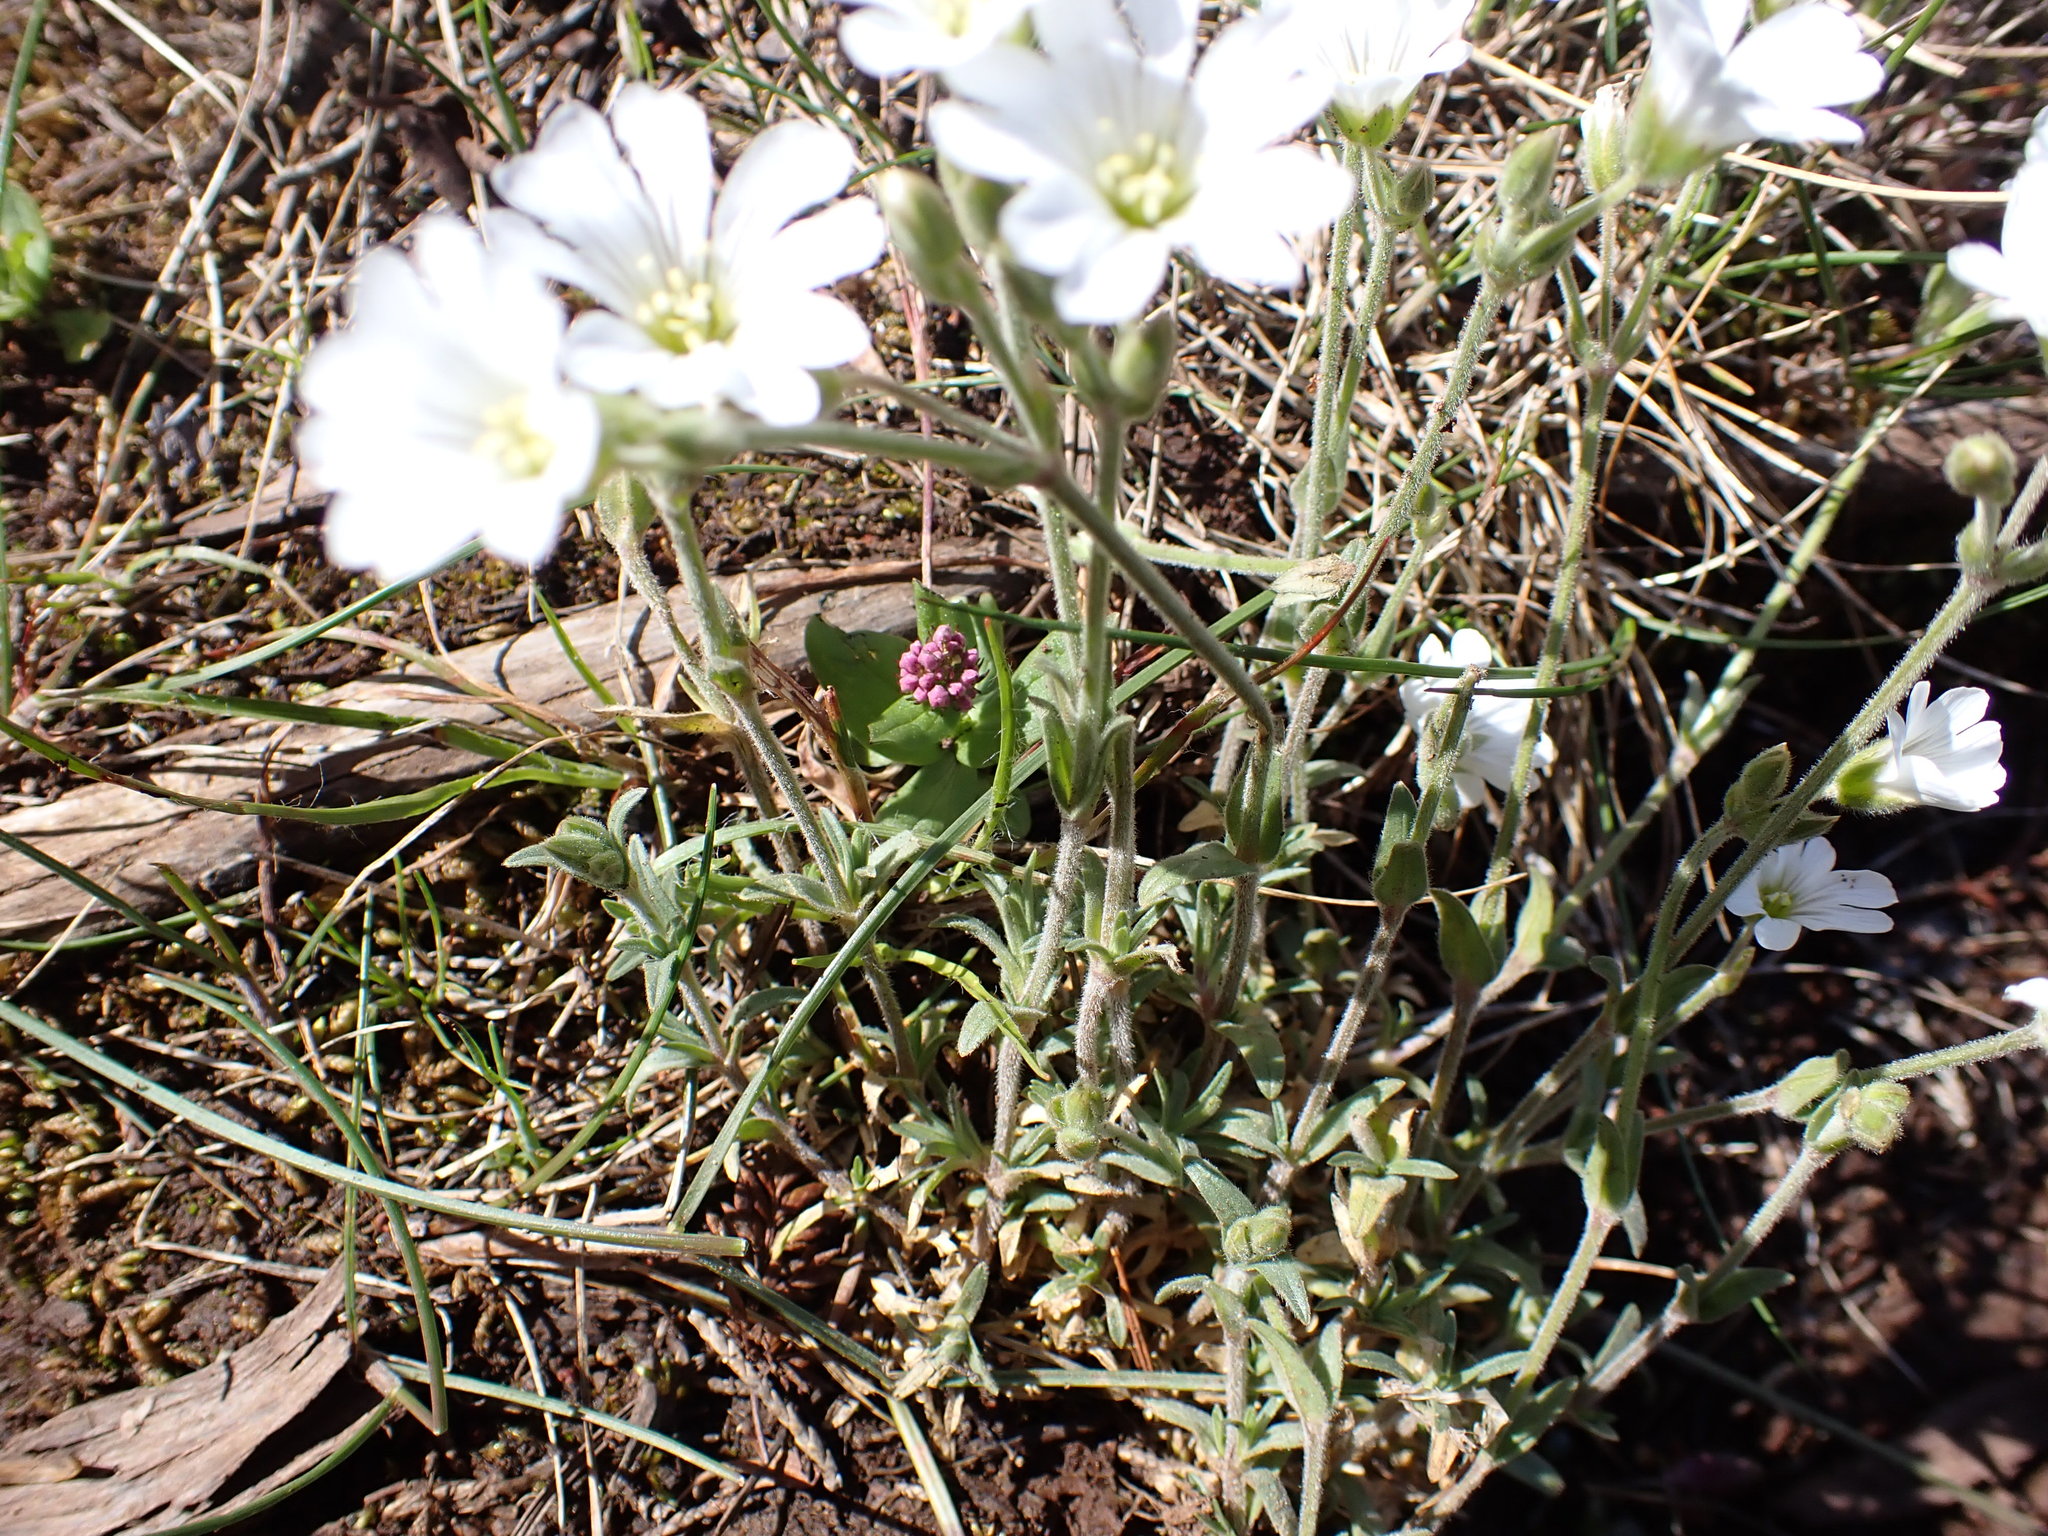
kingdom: Plantae
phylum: Tracheophyta
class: Magnoliopsida
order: Caryophyllales
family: Caryophyllaceae
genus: Cerastium
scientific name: Cerastium arvense
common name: Field mouse-ear
